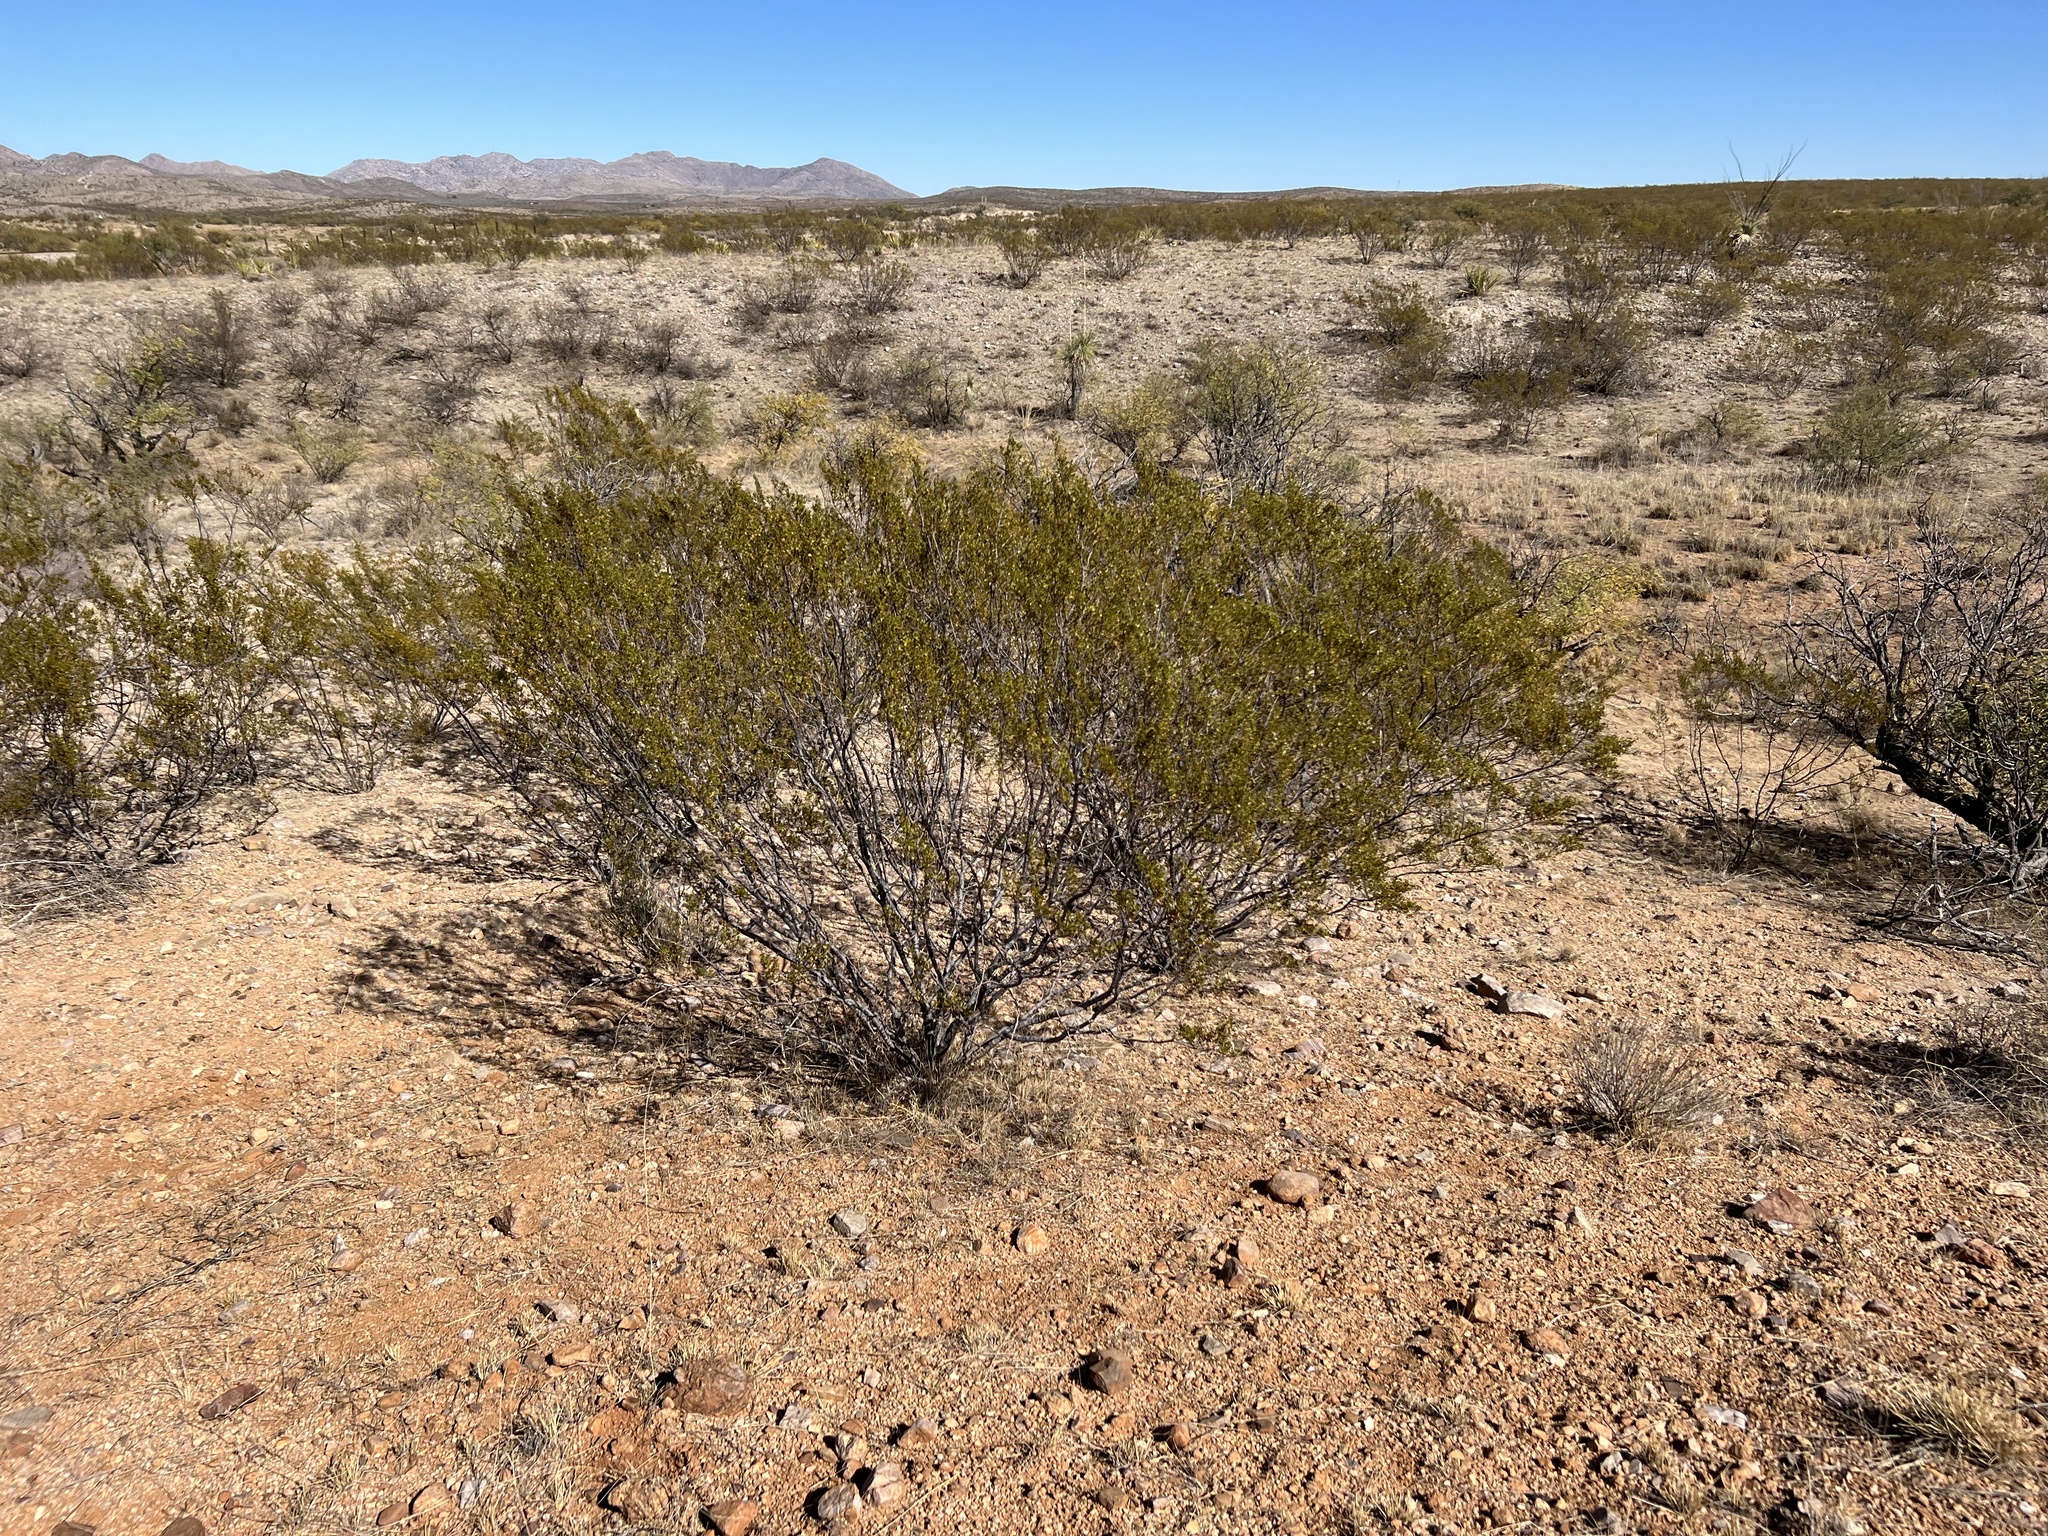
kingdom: Plantae
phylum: Tracheophyta
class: Magnoliopsida
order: Zygophyllales
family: Zygophyllaceae
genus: Larrea
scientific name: Larrea tridentata
